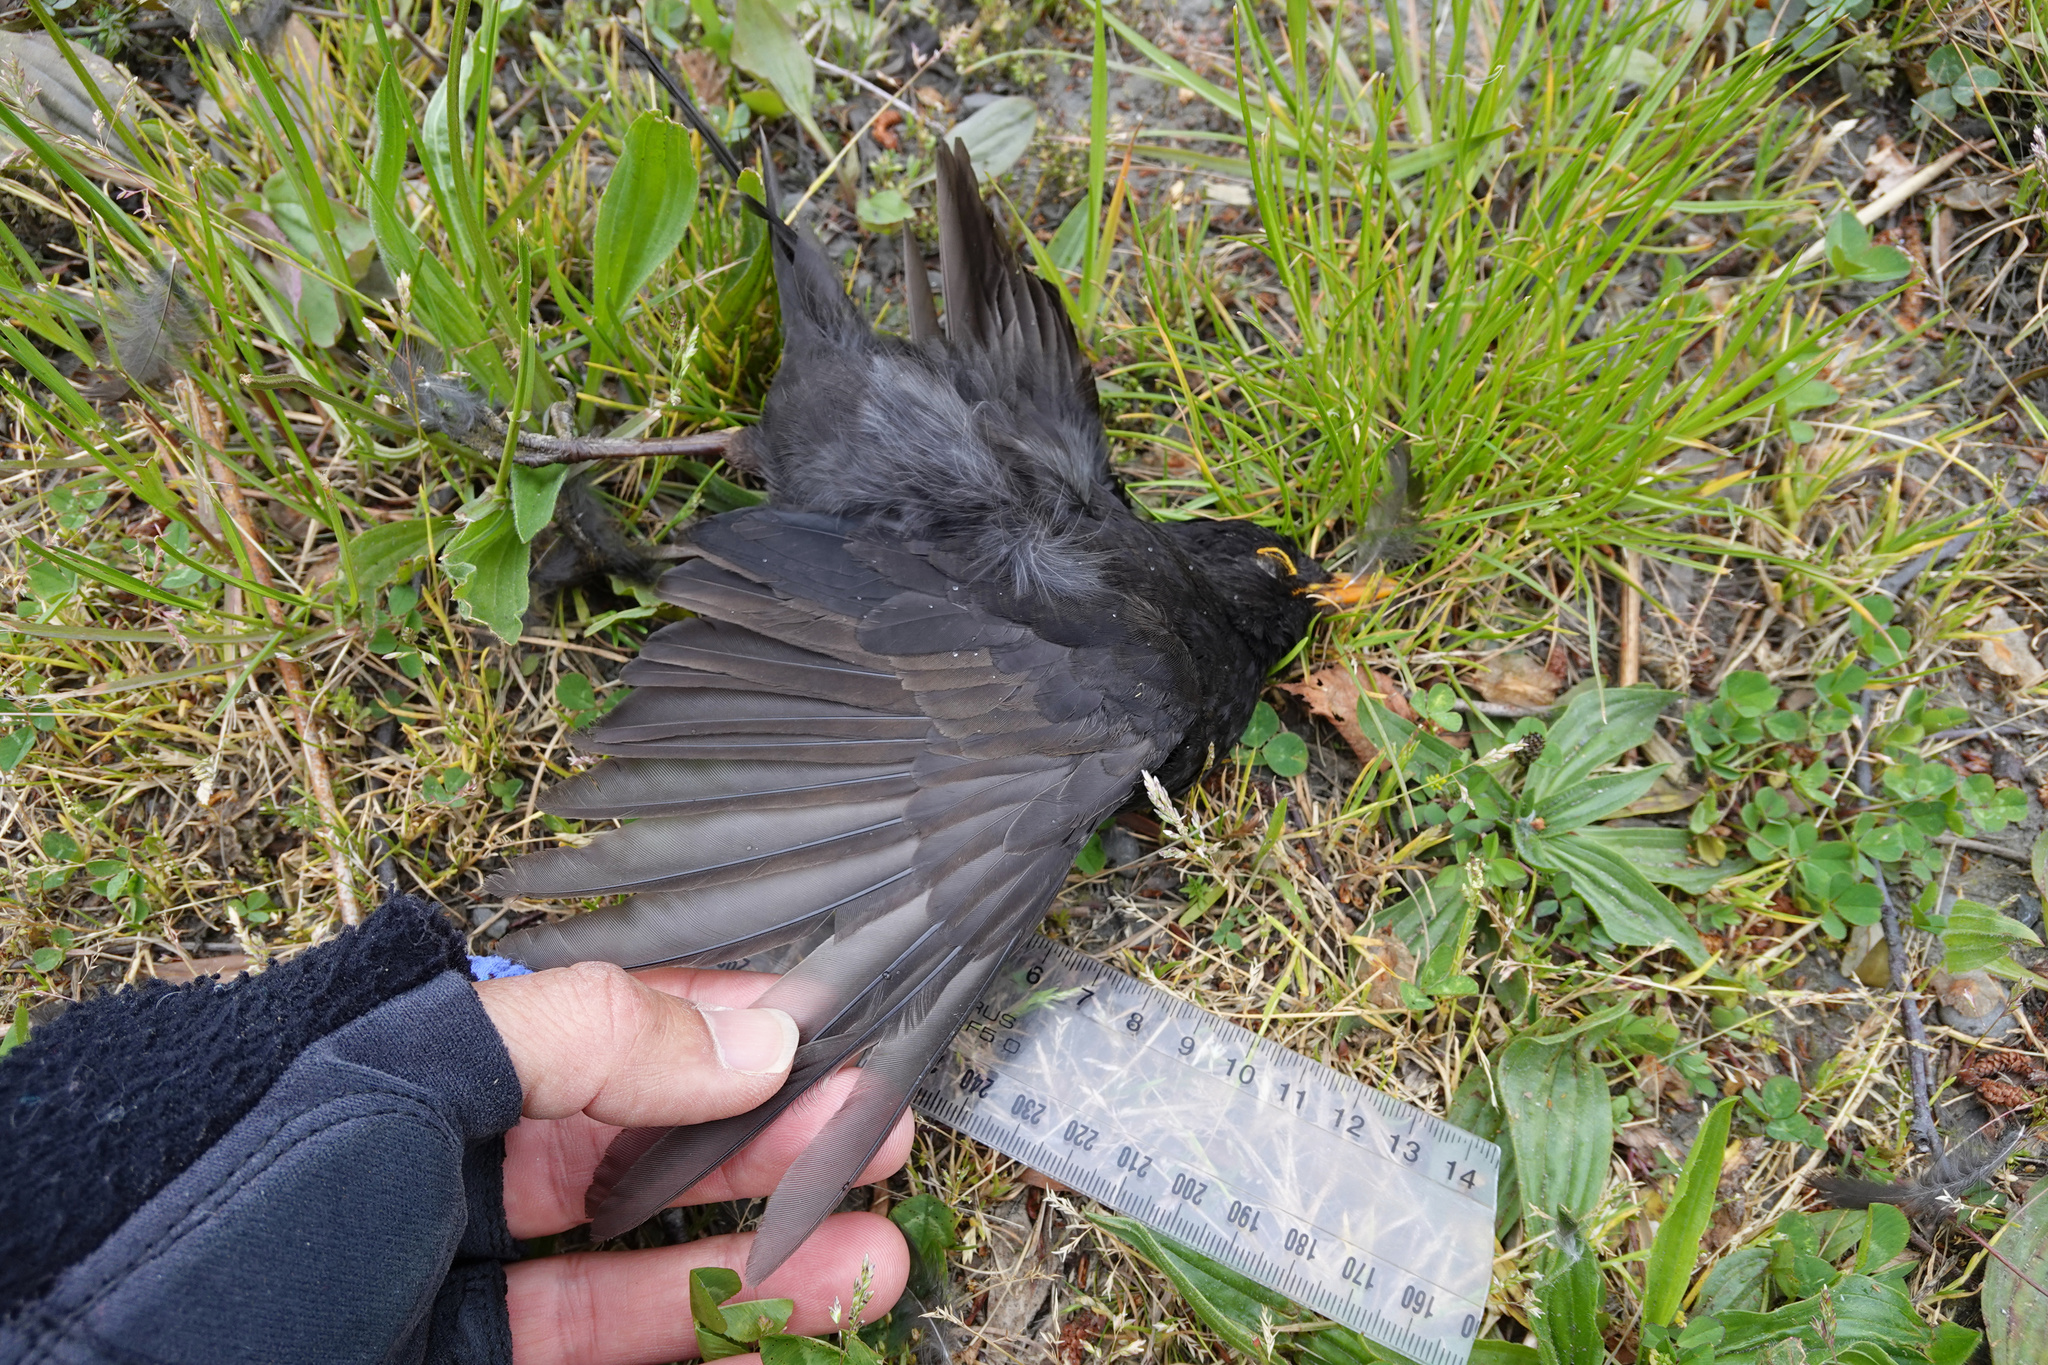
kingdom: Animalia
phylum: Chordata
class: Aves
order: Passeriformes
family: Turdidae
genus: Turdus
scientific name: Turdus merula
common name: Common blackbird
